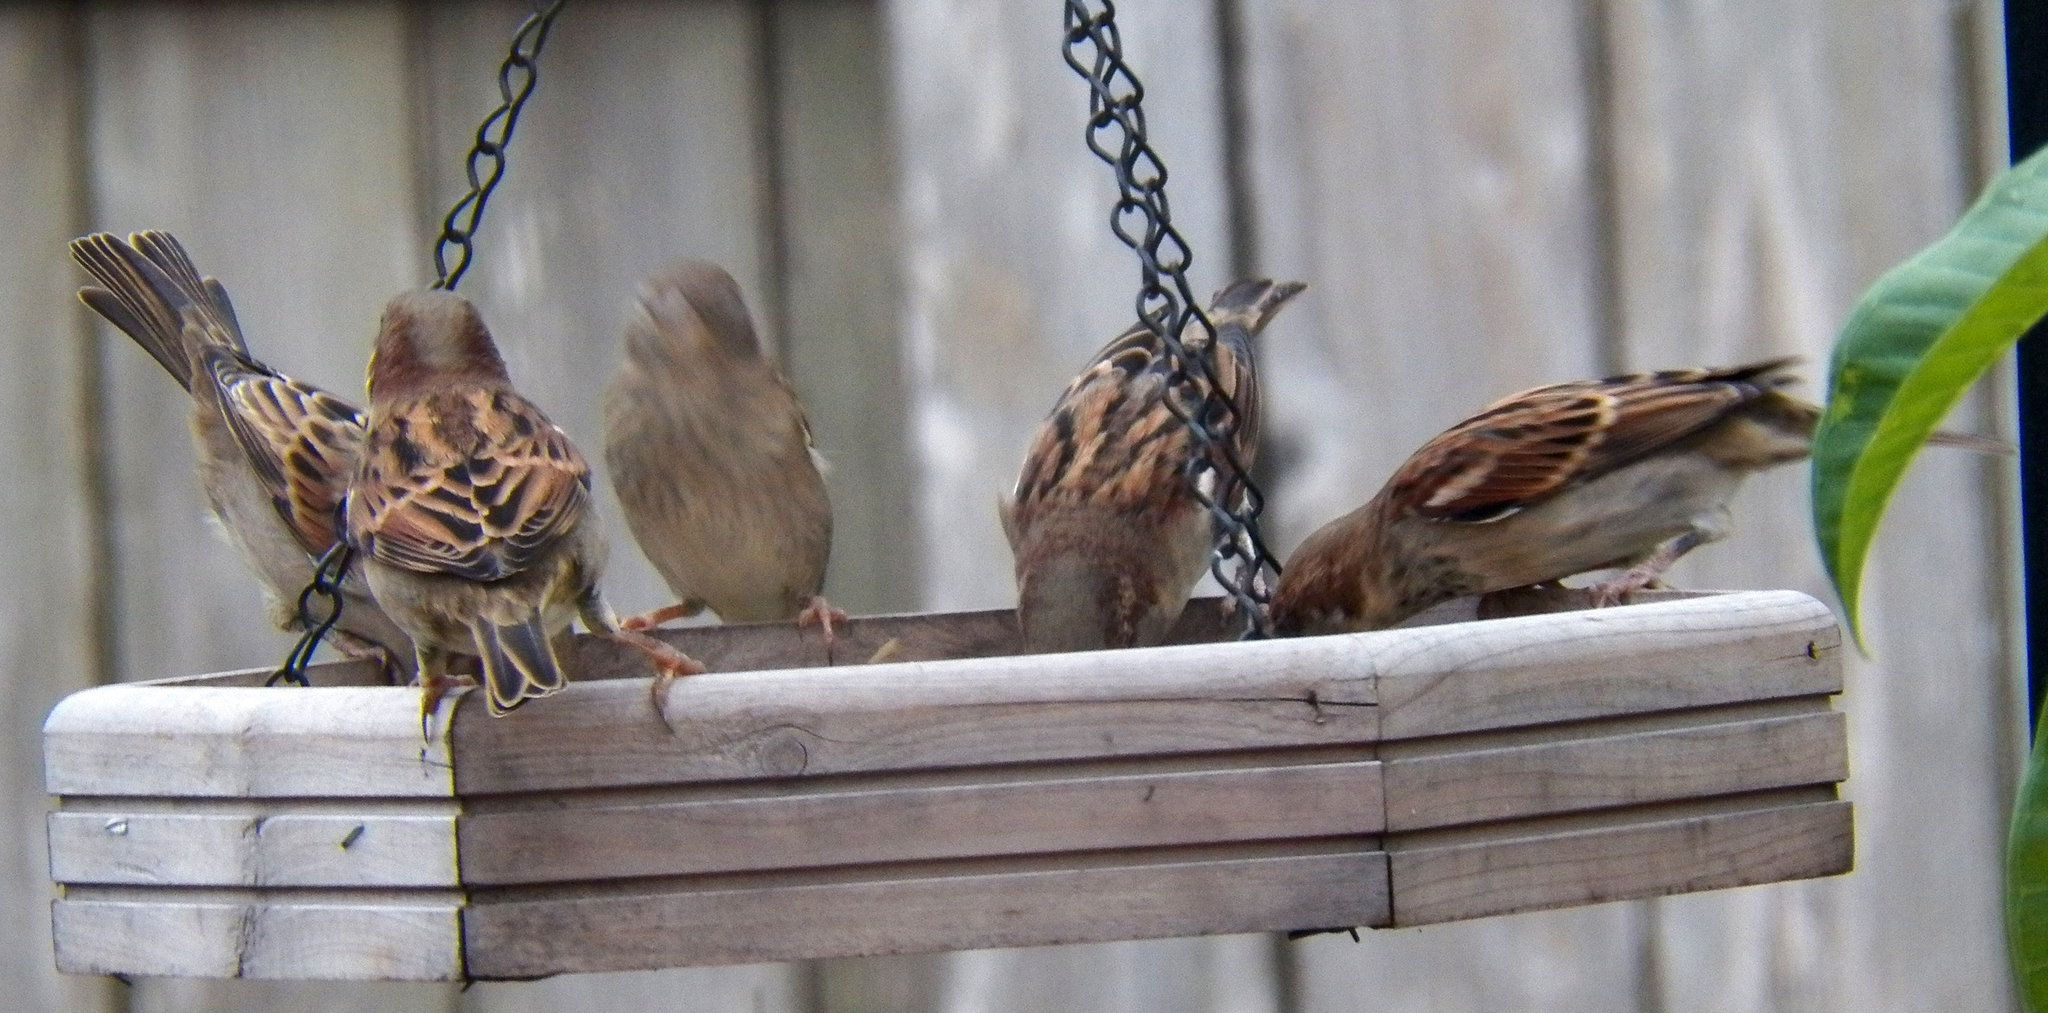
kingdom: Animalia
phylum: Chordata
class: Aves
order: Passeriformes
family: Passeridae
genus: Passer
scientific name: Passer domesticus
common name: House sparrow
